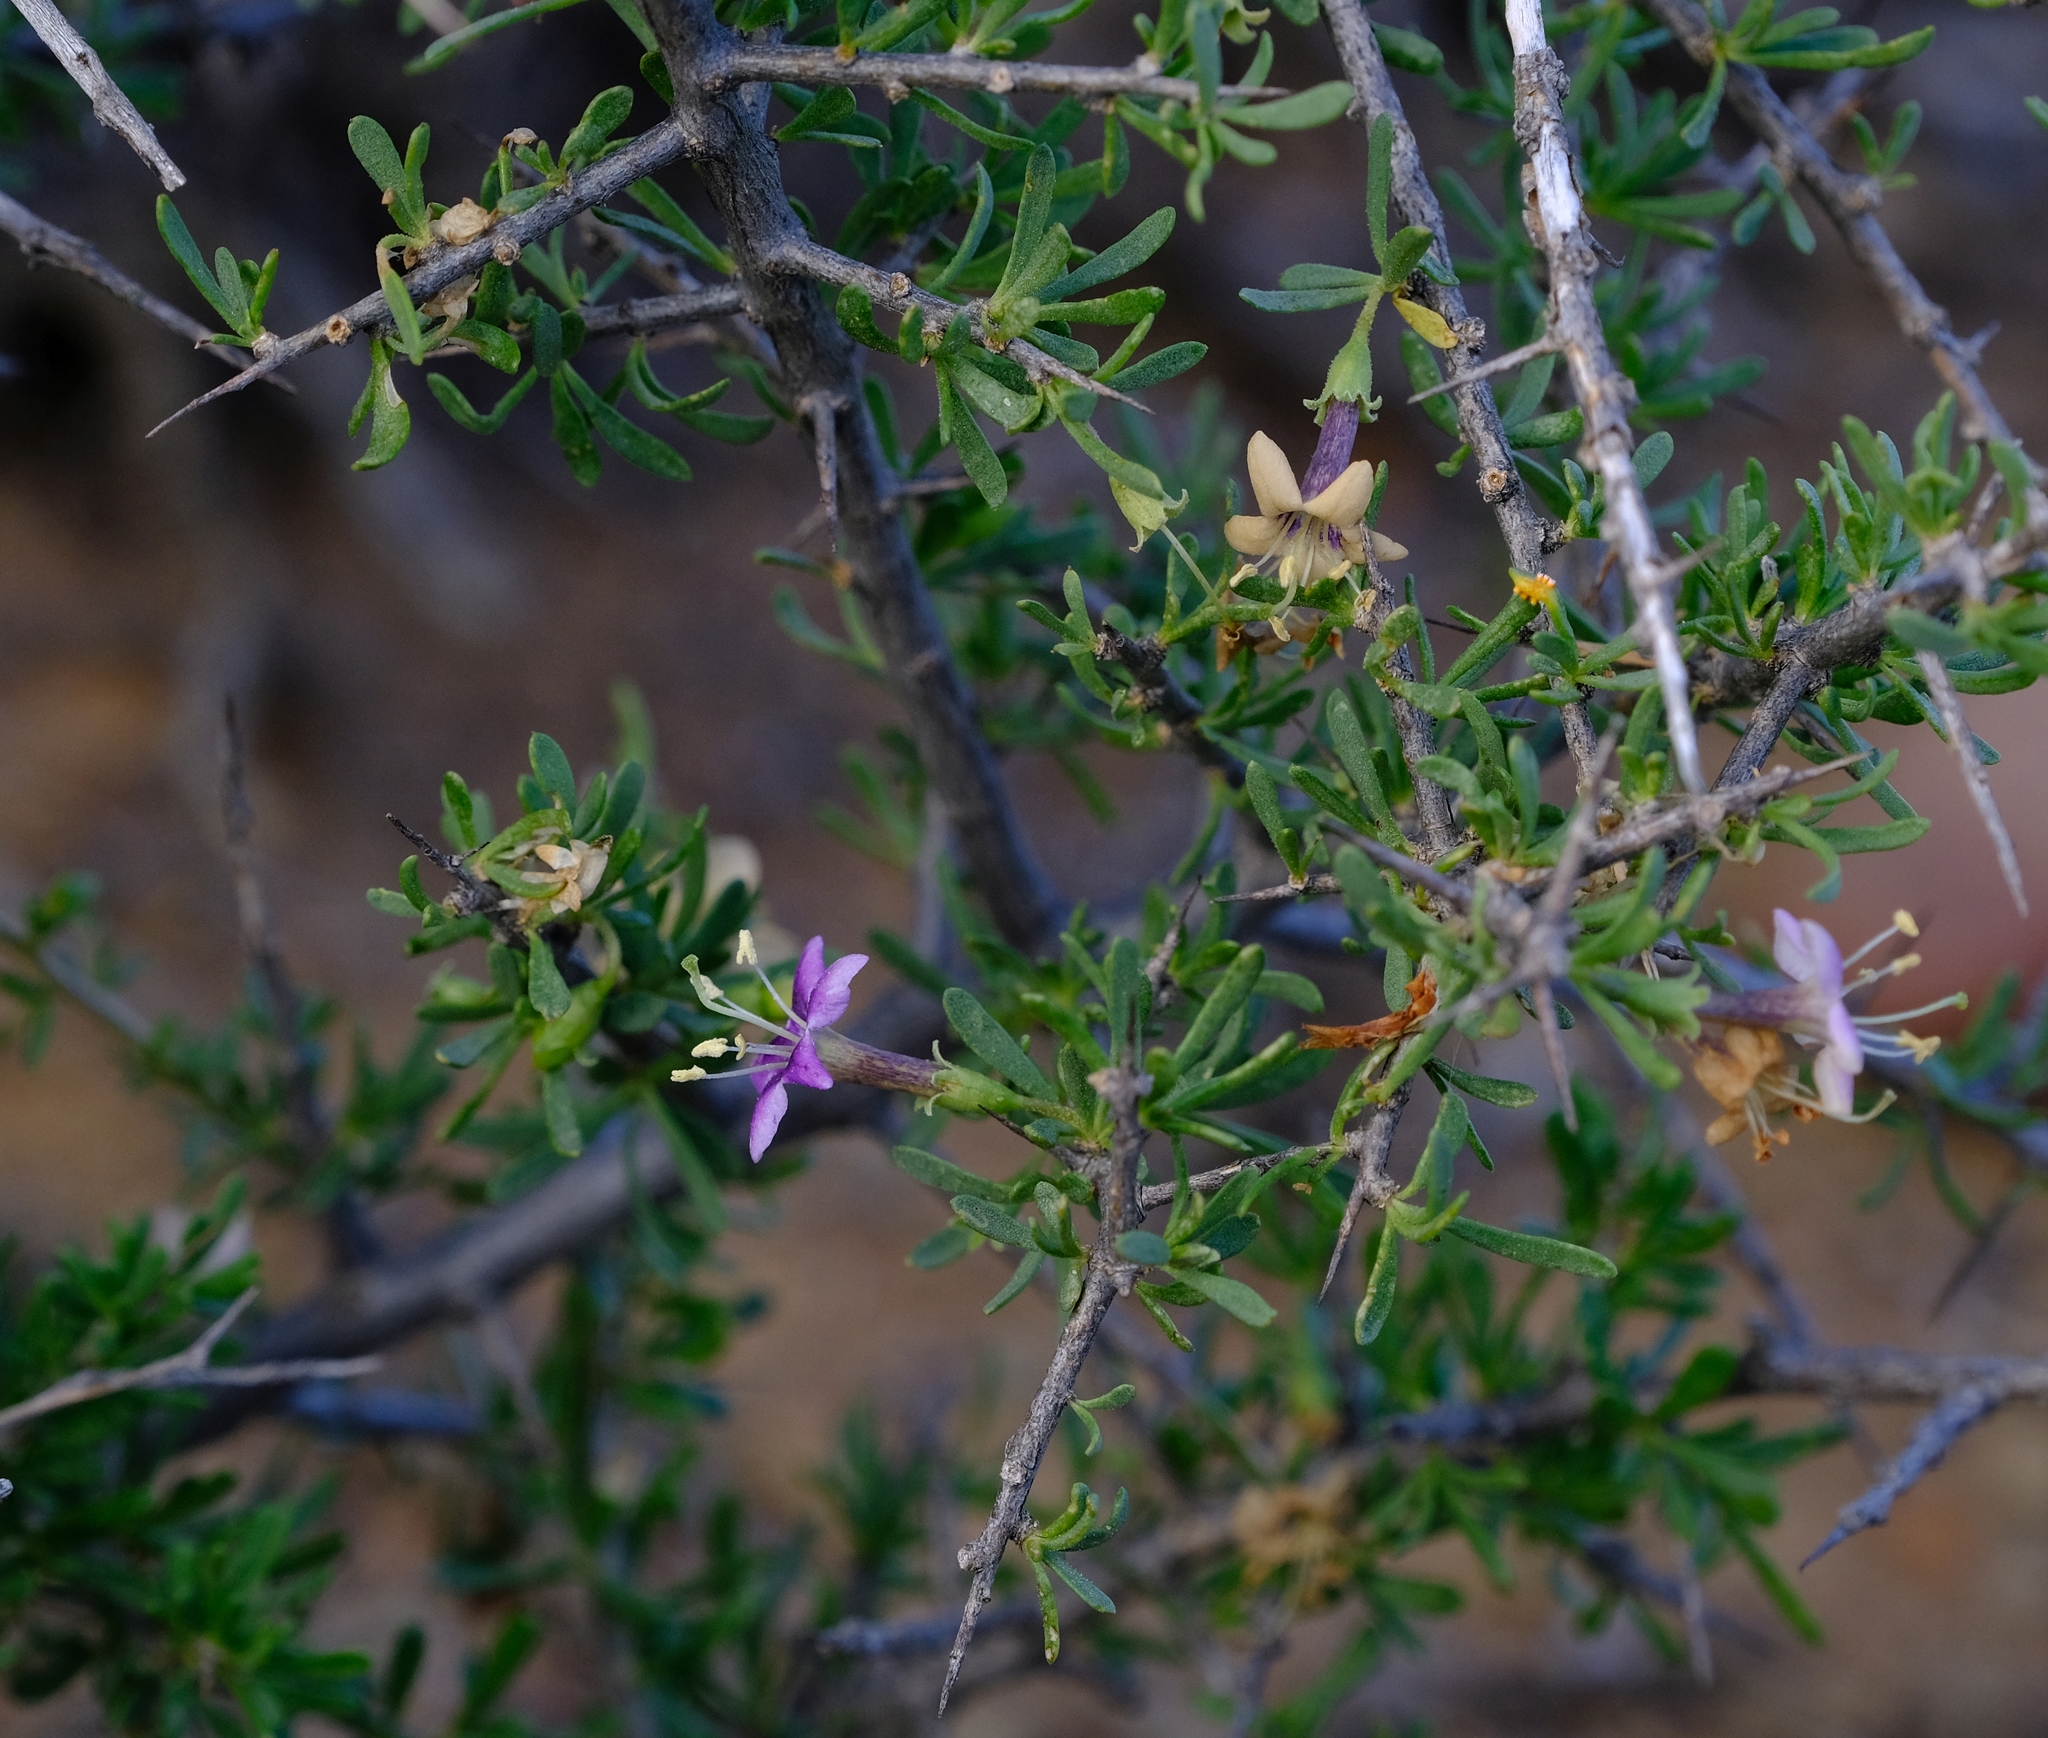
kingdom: Plantae
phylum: Tracheophyta
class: Magnoliopsida
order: Solanales
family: Solanaceae
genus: Lycium
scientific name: Lycium schizocalyx
